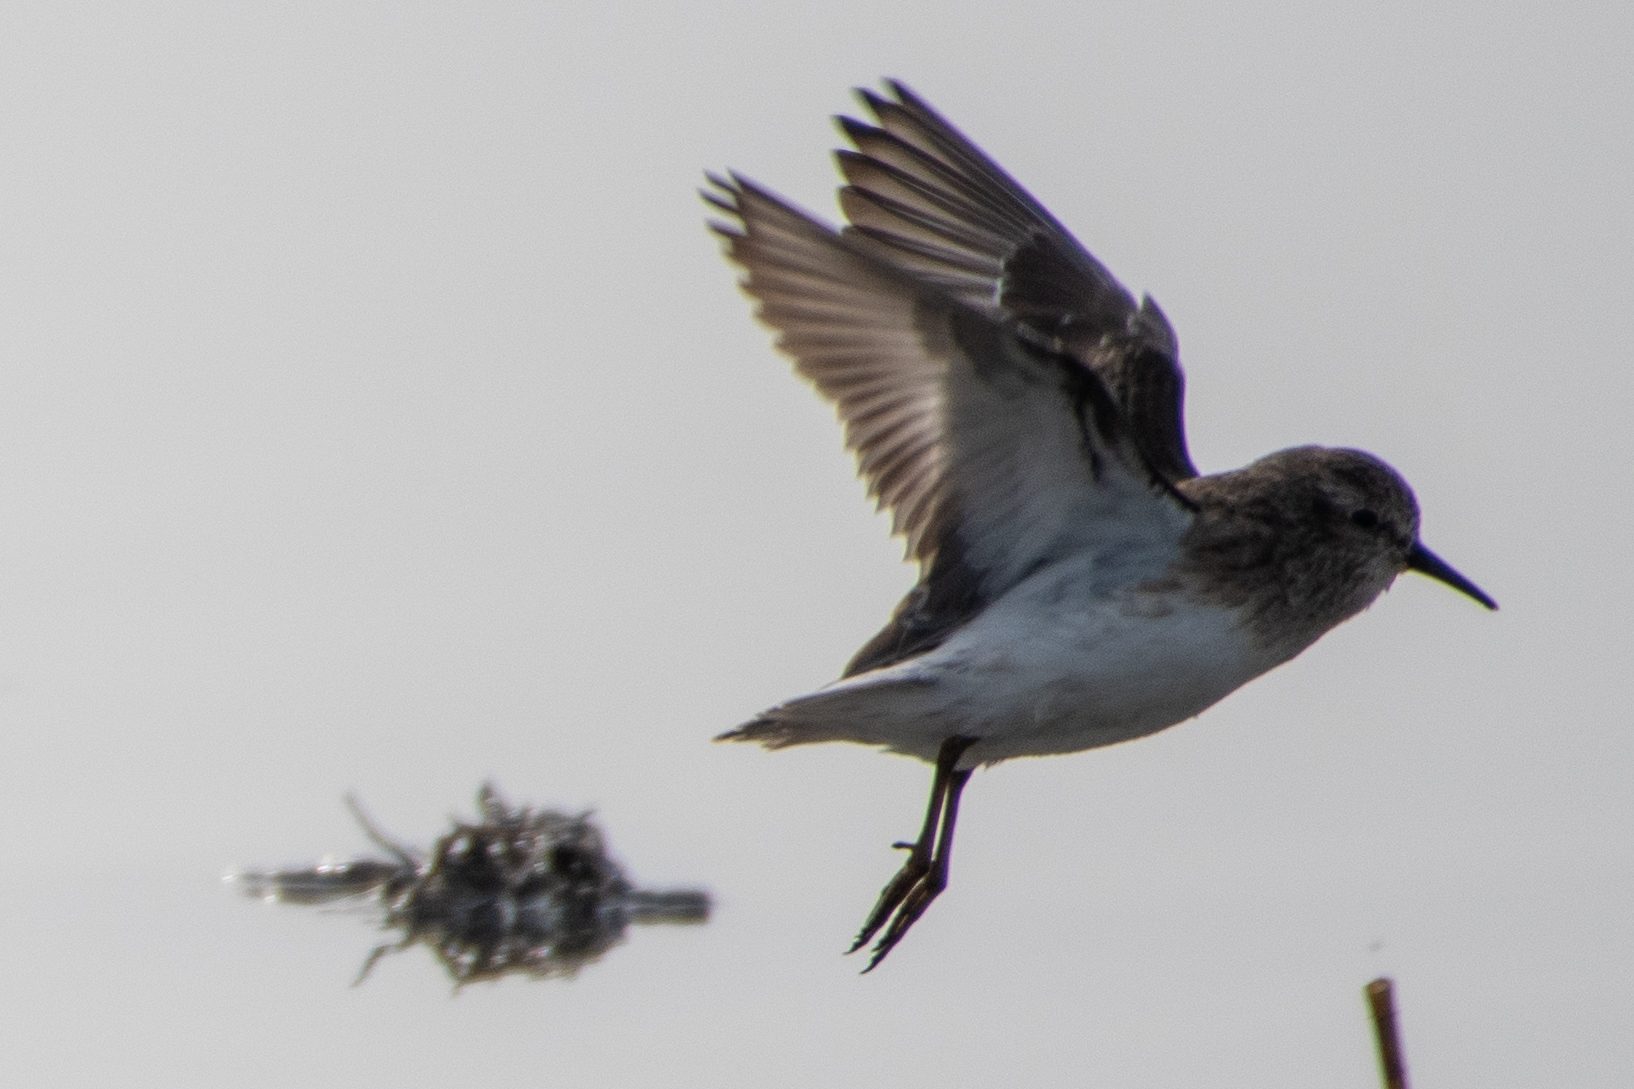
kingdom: Animalia
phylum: Chordata
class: Aves
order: Charadriiformes
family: Scolopacidae
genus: Calidris
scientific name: Calidris minutilla
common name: Least sandpiper
